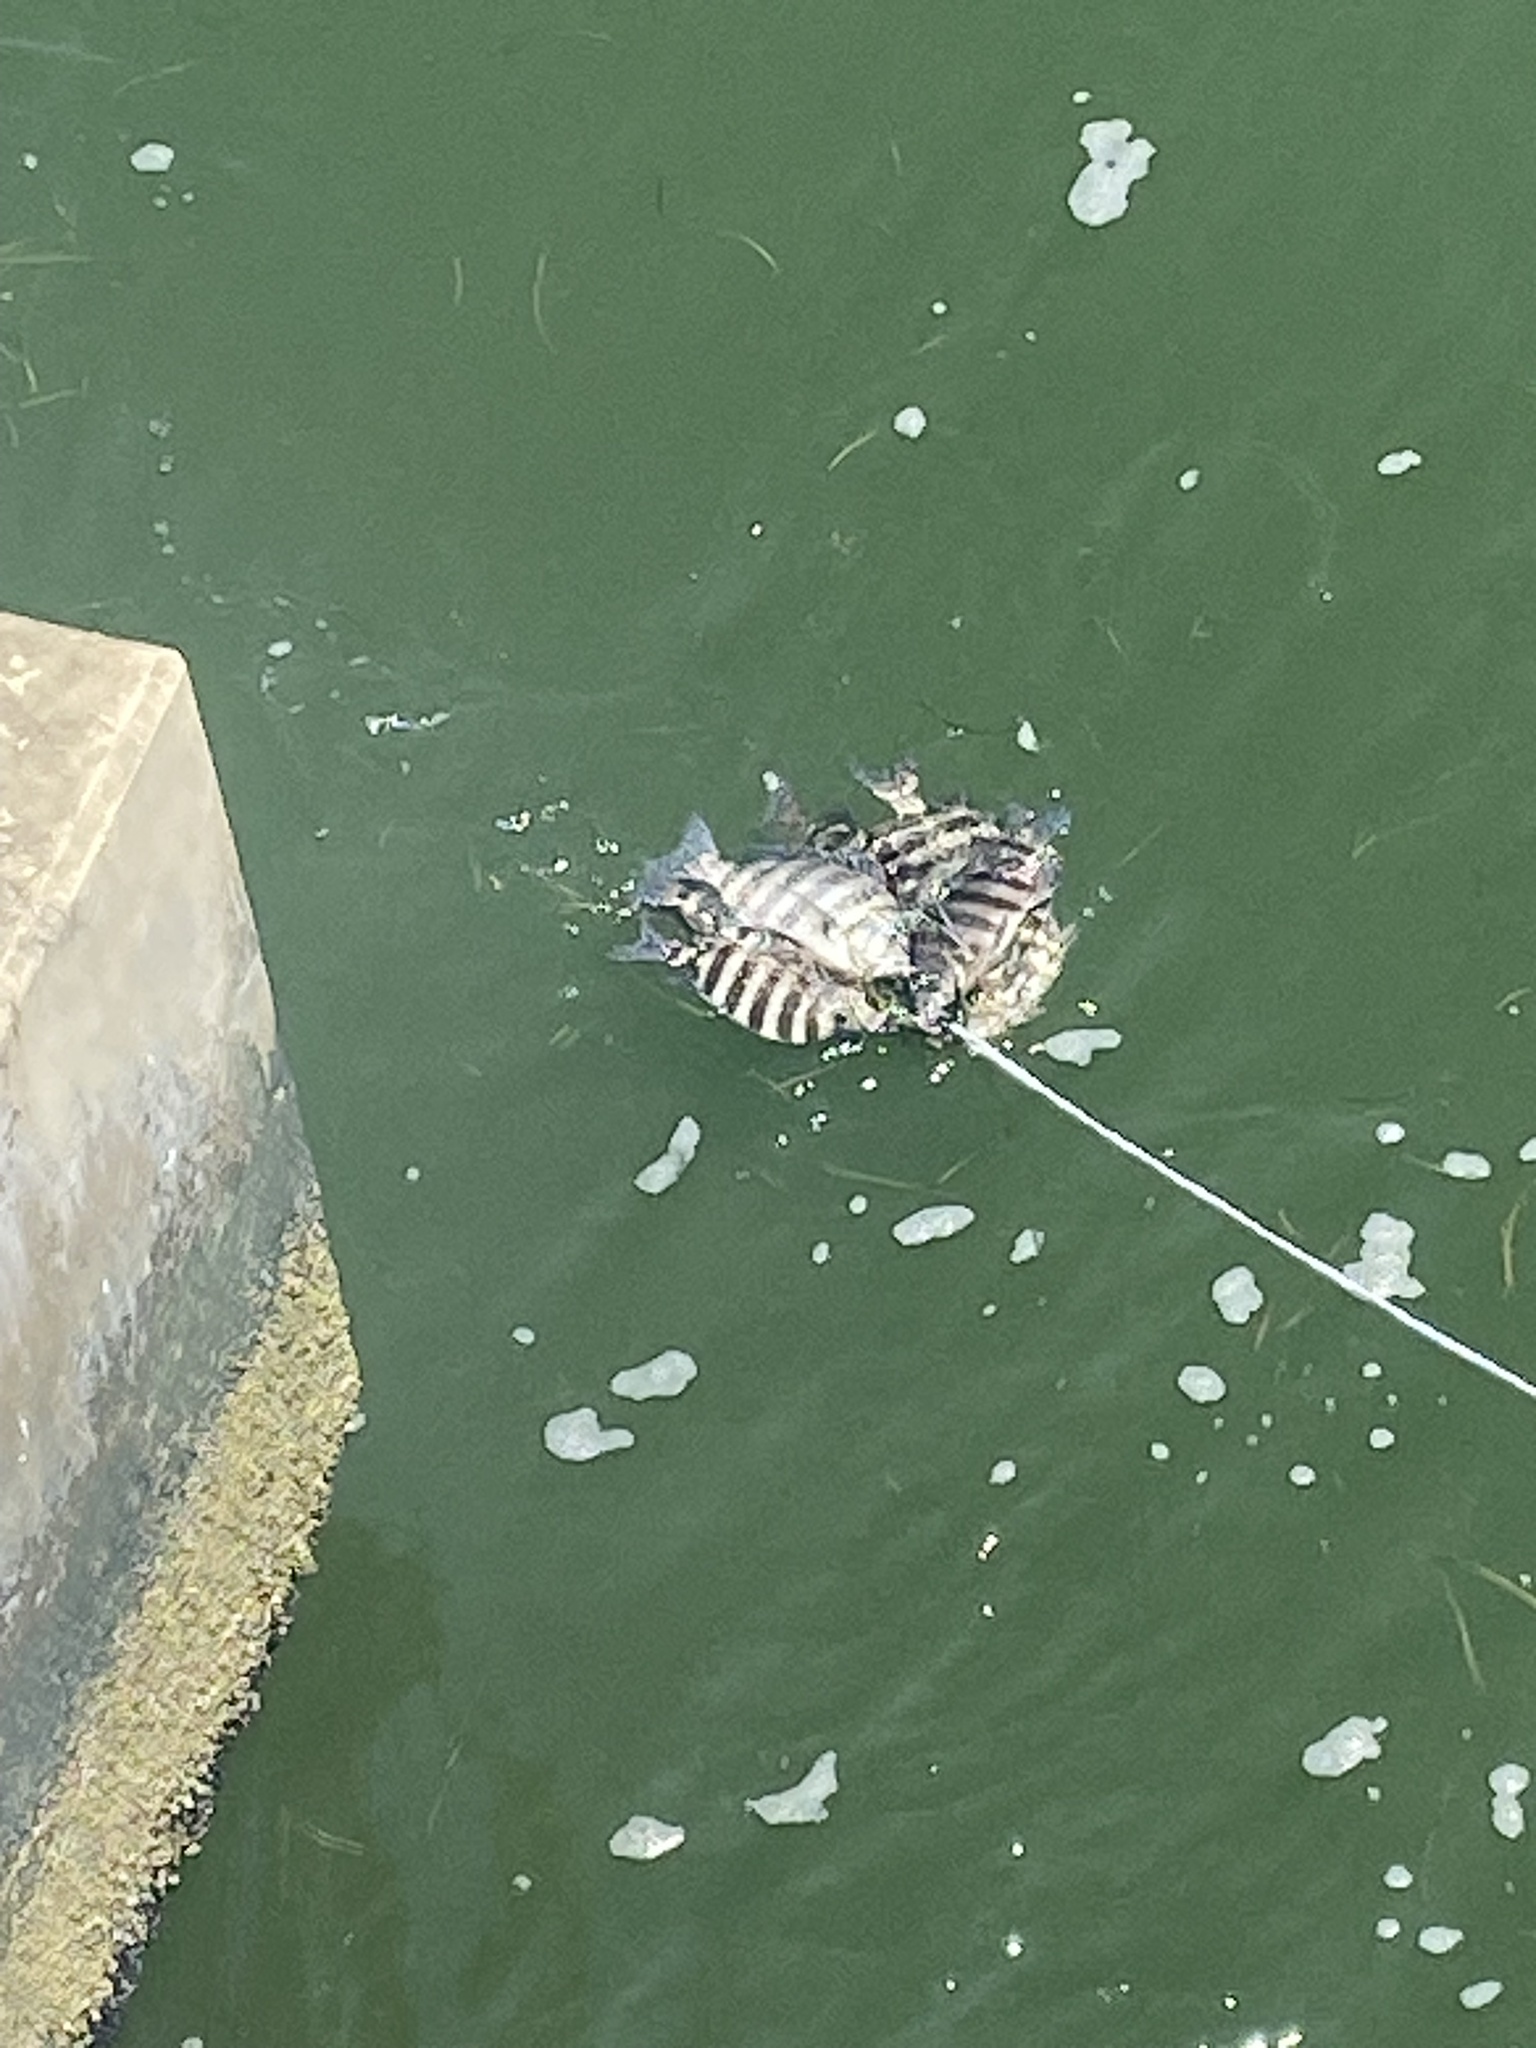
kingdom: Animalia
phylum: Chordata
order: Perciformes
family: Sparidae
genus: Archosargus
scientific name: Archosargus probatocephalus
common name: Sheepshead
